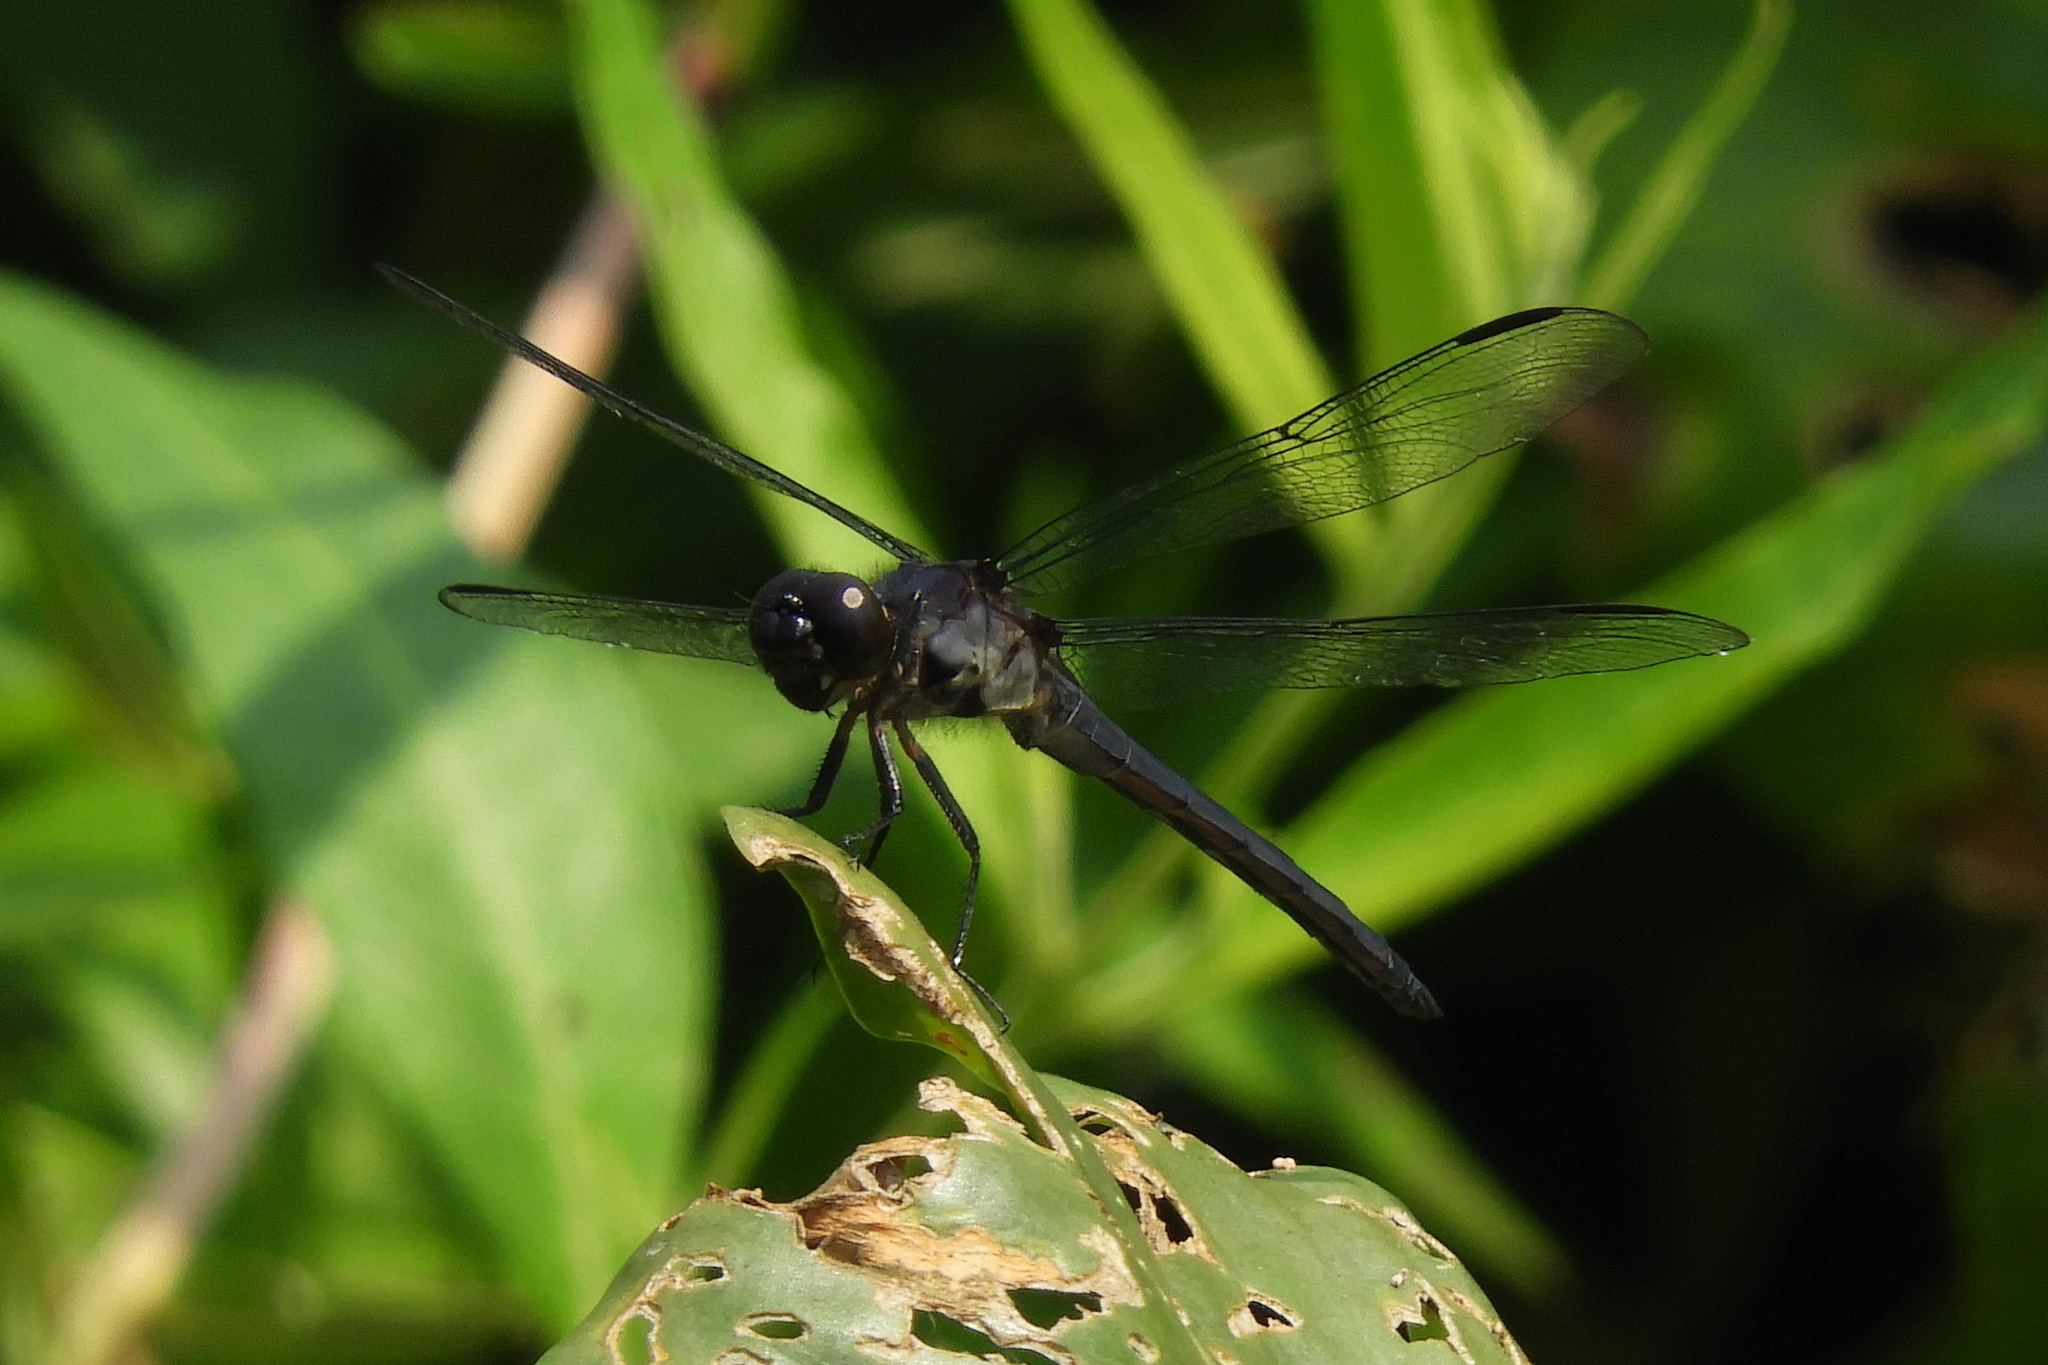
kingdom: Animalia
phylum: Arthropoda
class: Insecta
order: Odonata
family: Libellulidae
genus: Libellula
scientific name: Libellula incesta
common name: Slaty skimmer
